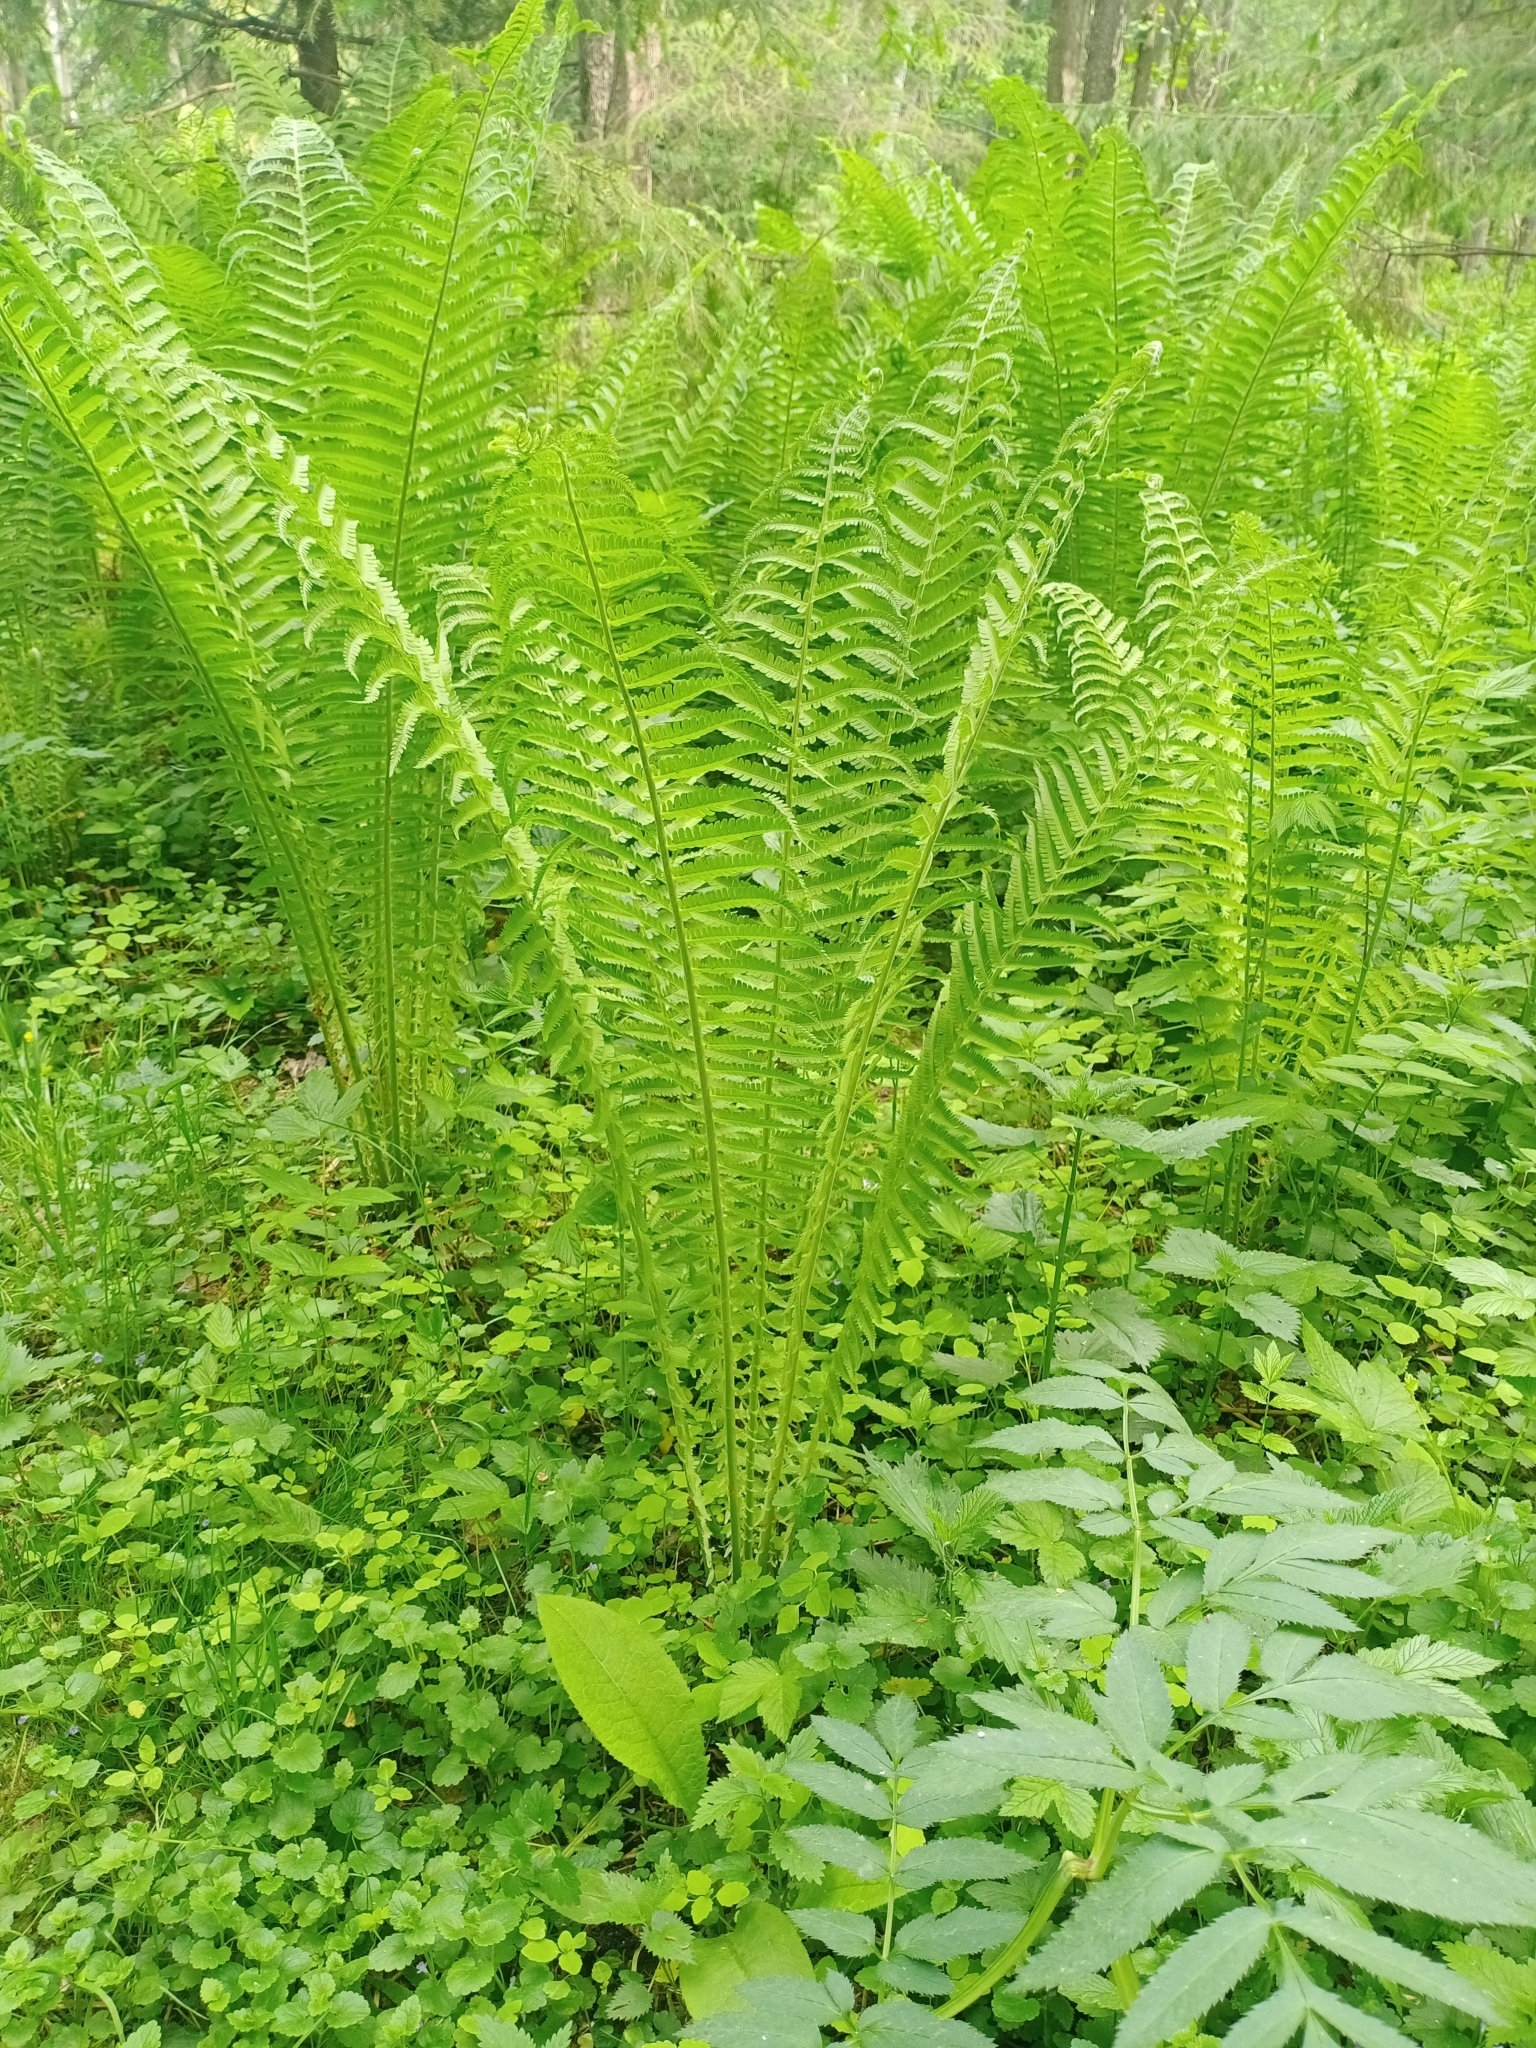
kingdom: Plantae
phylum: Tracheophyta
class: Polypodiopsida
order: Polypodiales
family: Onocleaceae
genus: Matteuccia
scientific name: Matteuccia struthiopteris
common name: Ostrich fern
